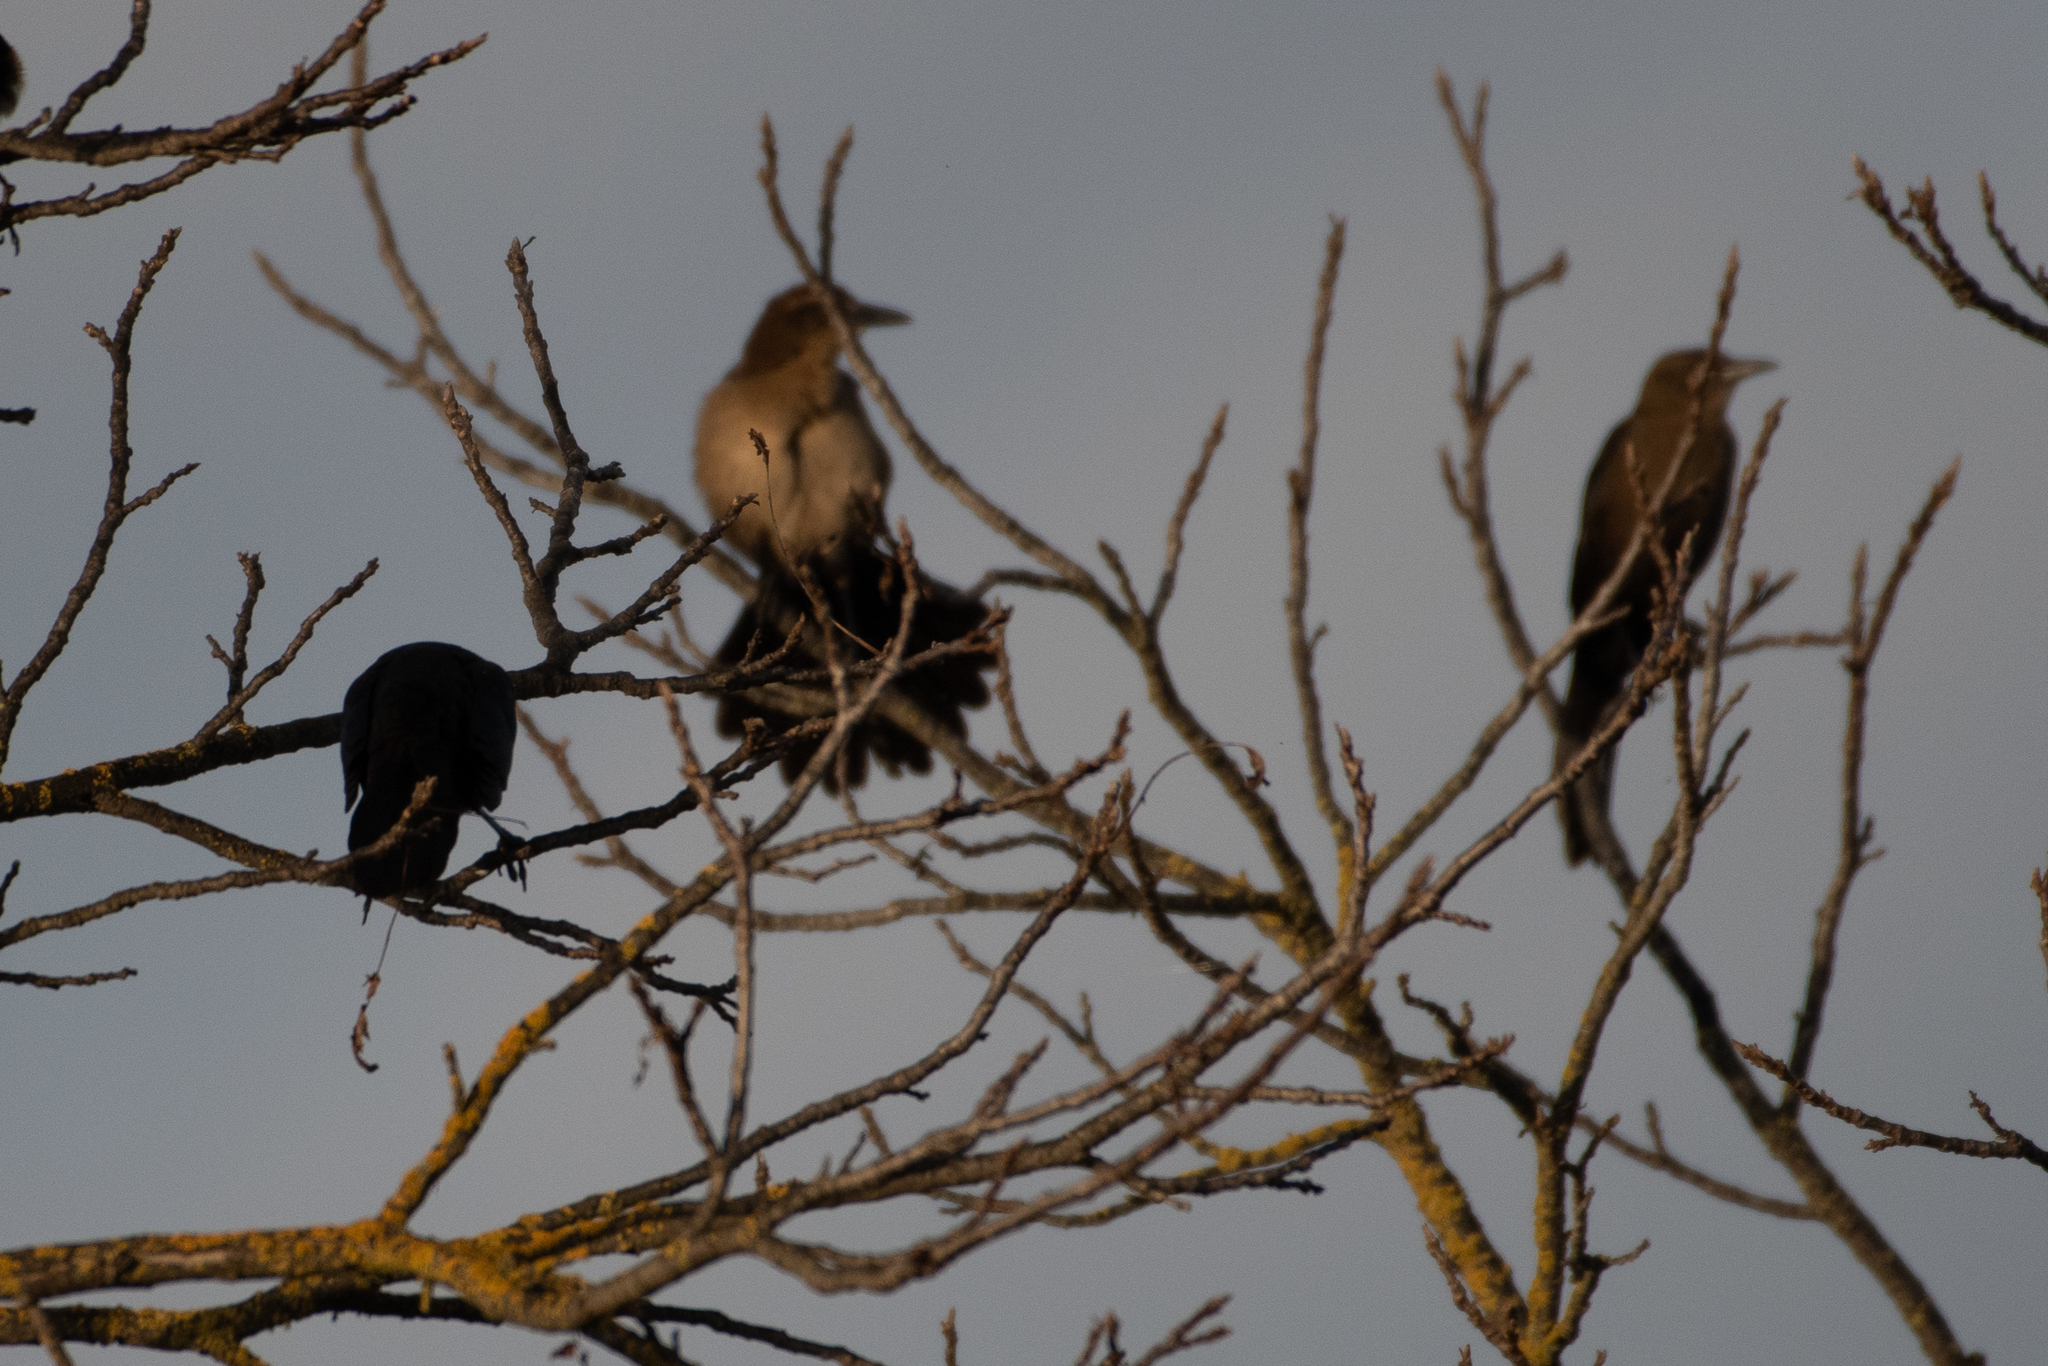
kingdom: Animalia
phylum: Chordata
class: Aves
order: Passeriformes
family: Icteridae
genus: Quiscalus
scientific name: Quiscalus mexicanus
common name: Great-tailed grackle
